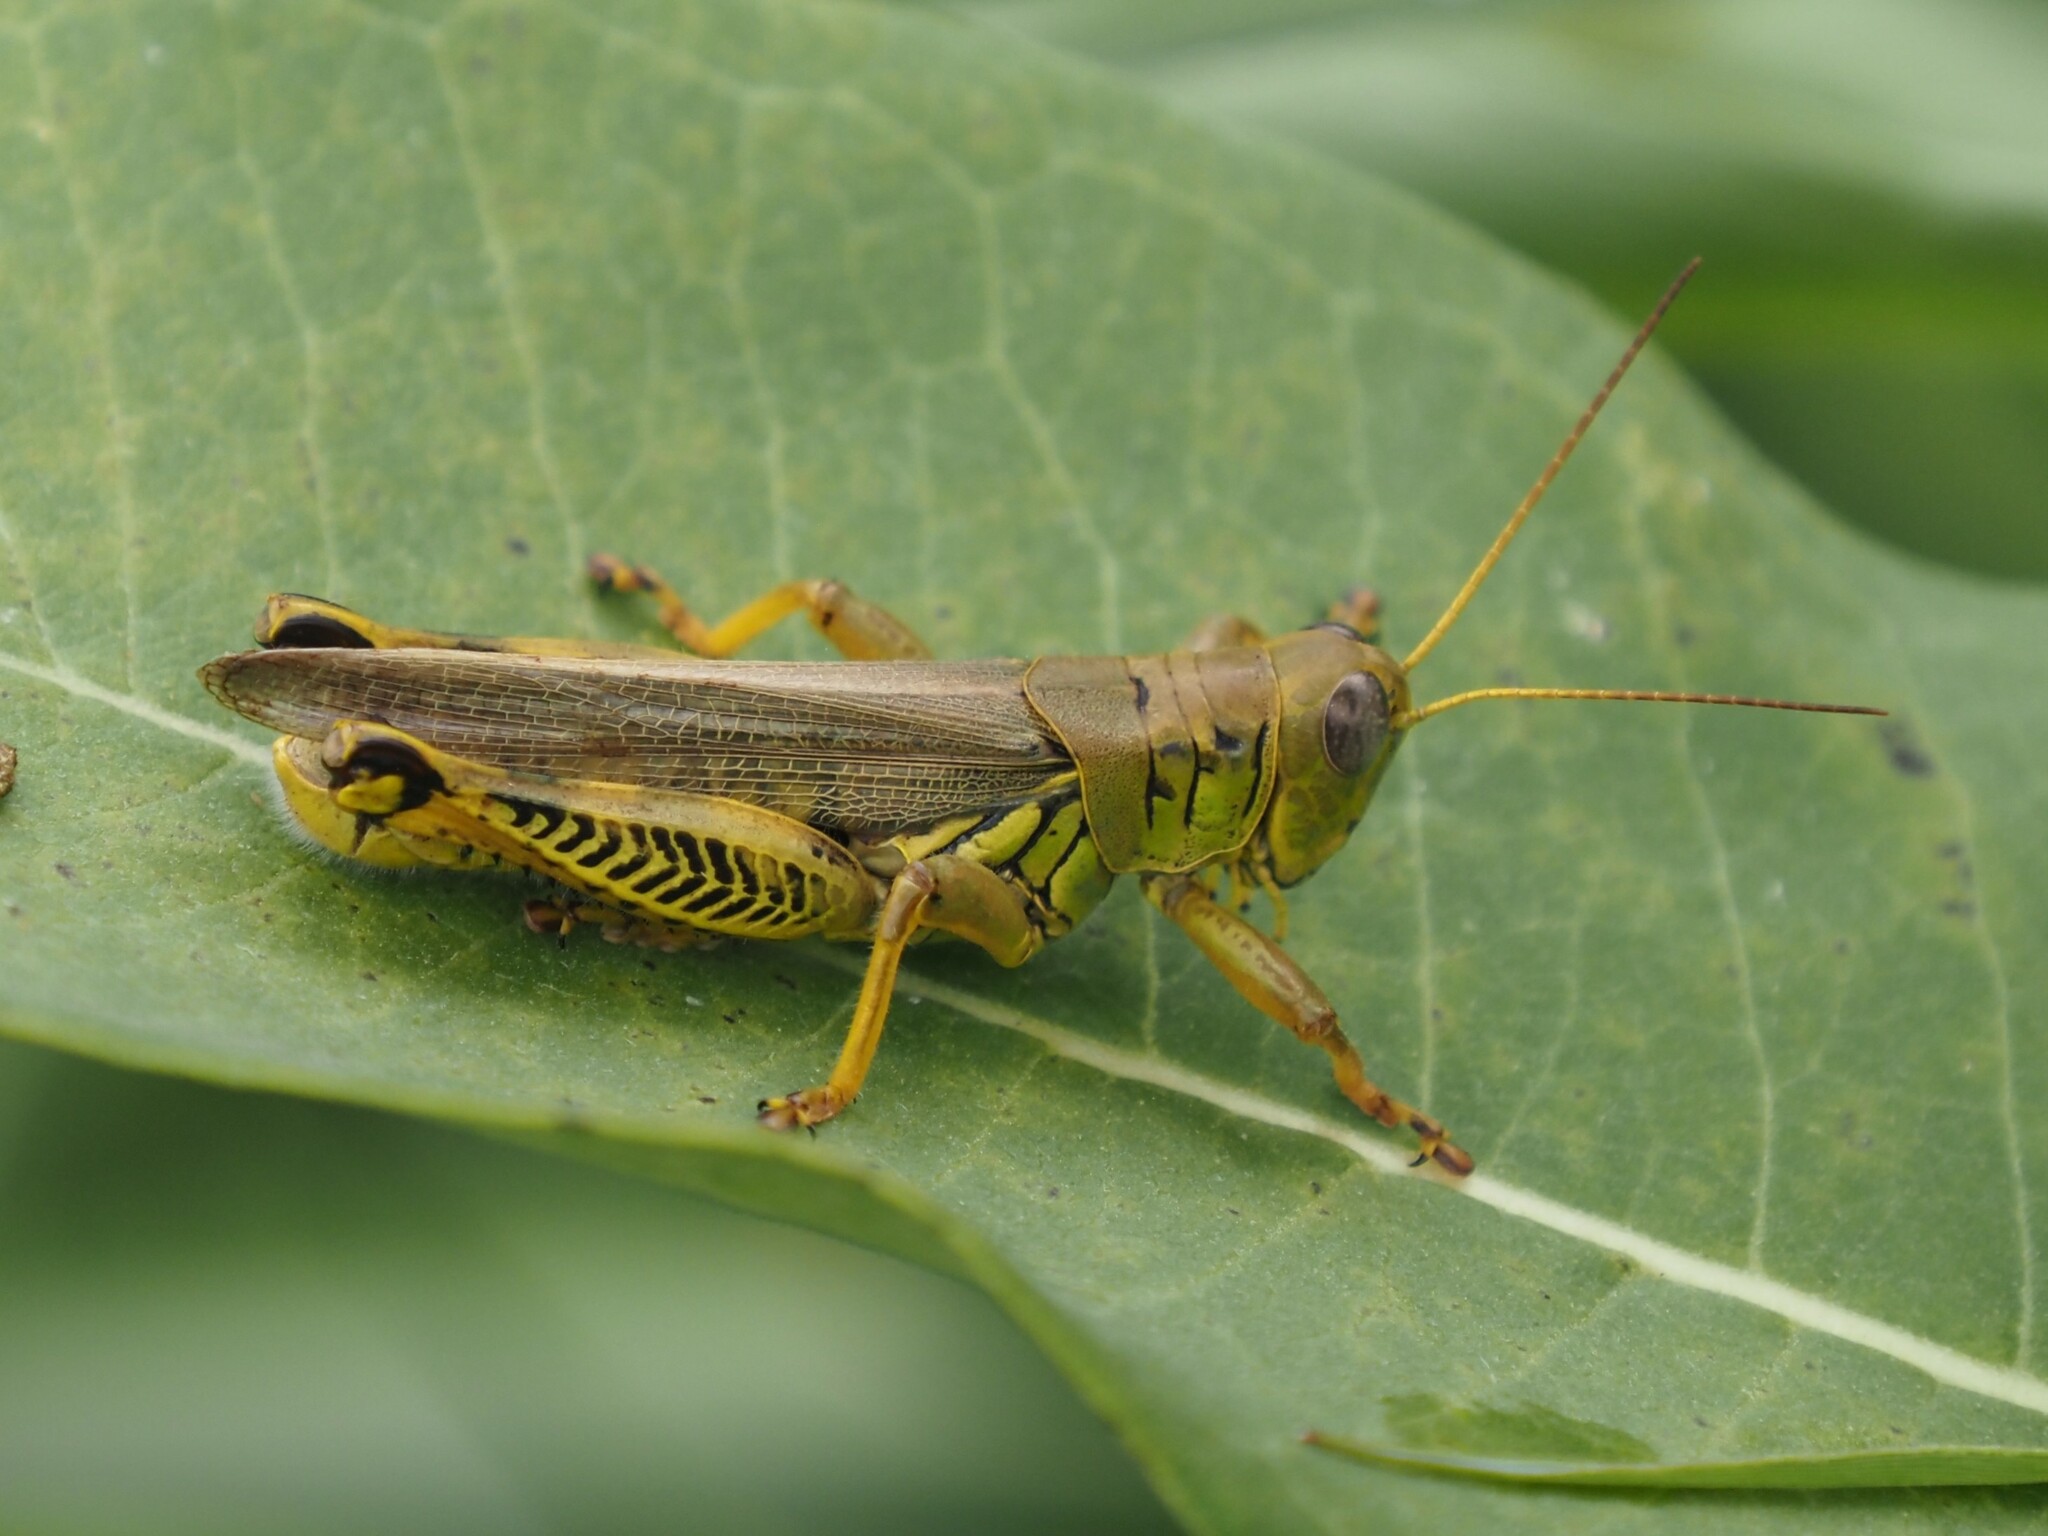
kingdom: Animalia
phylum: Arthropoda
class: Insecta
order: Orthoptera
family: Acrididae
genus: Melanoplus
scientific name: Melanoplus differentialis
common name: Differential grasshopper
